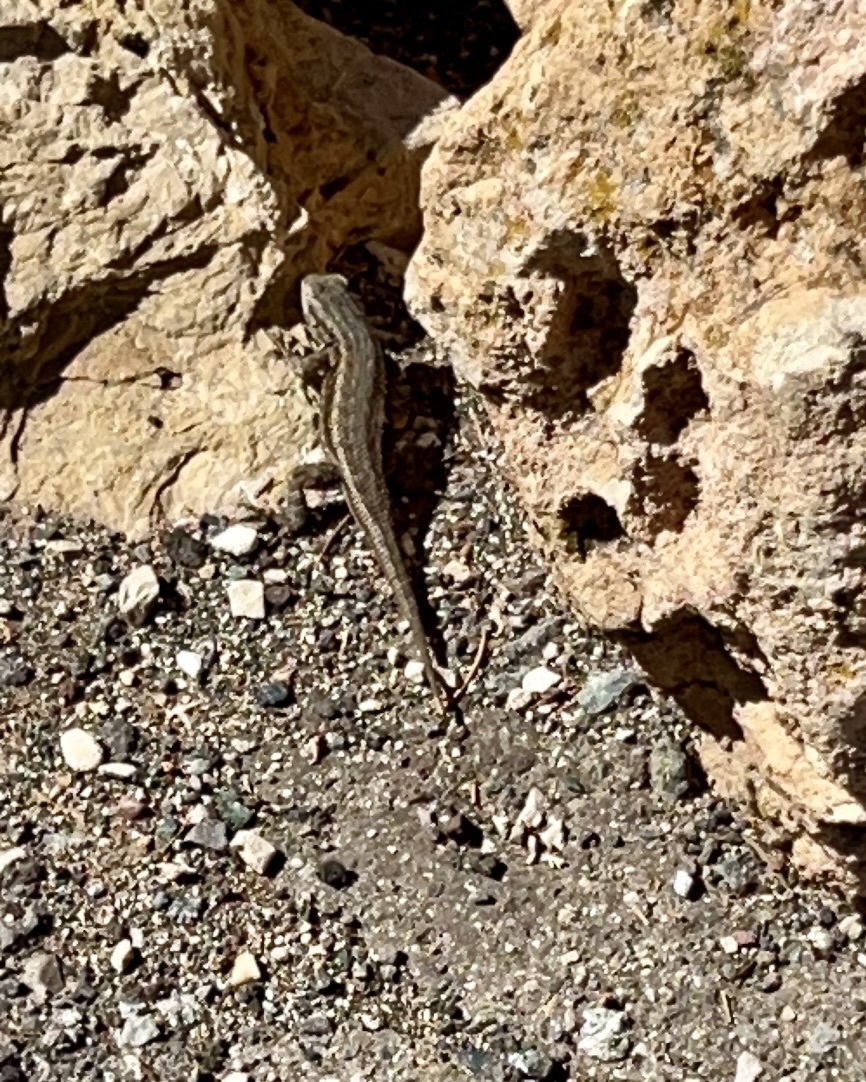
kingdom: Animalia
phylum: Chordata
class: Squamata
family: Phrynosomatidae
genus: Sceloporus
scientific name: Sceloporus tristichus
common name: Plateau fence lizard
